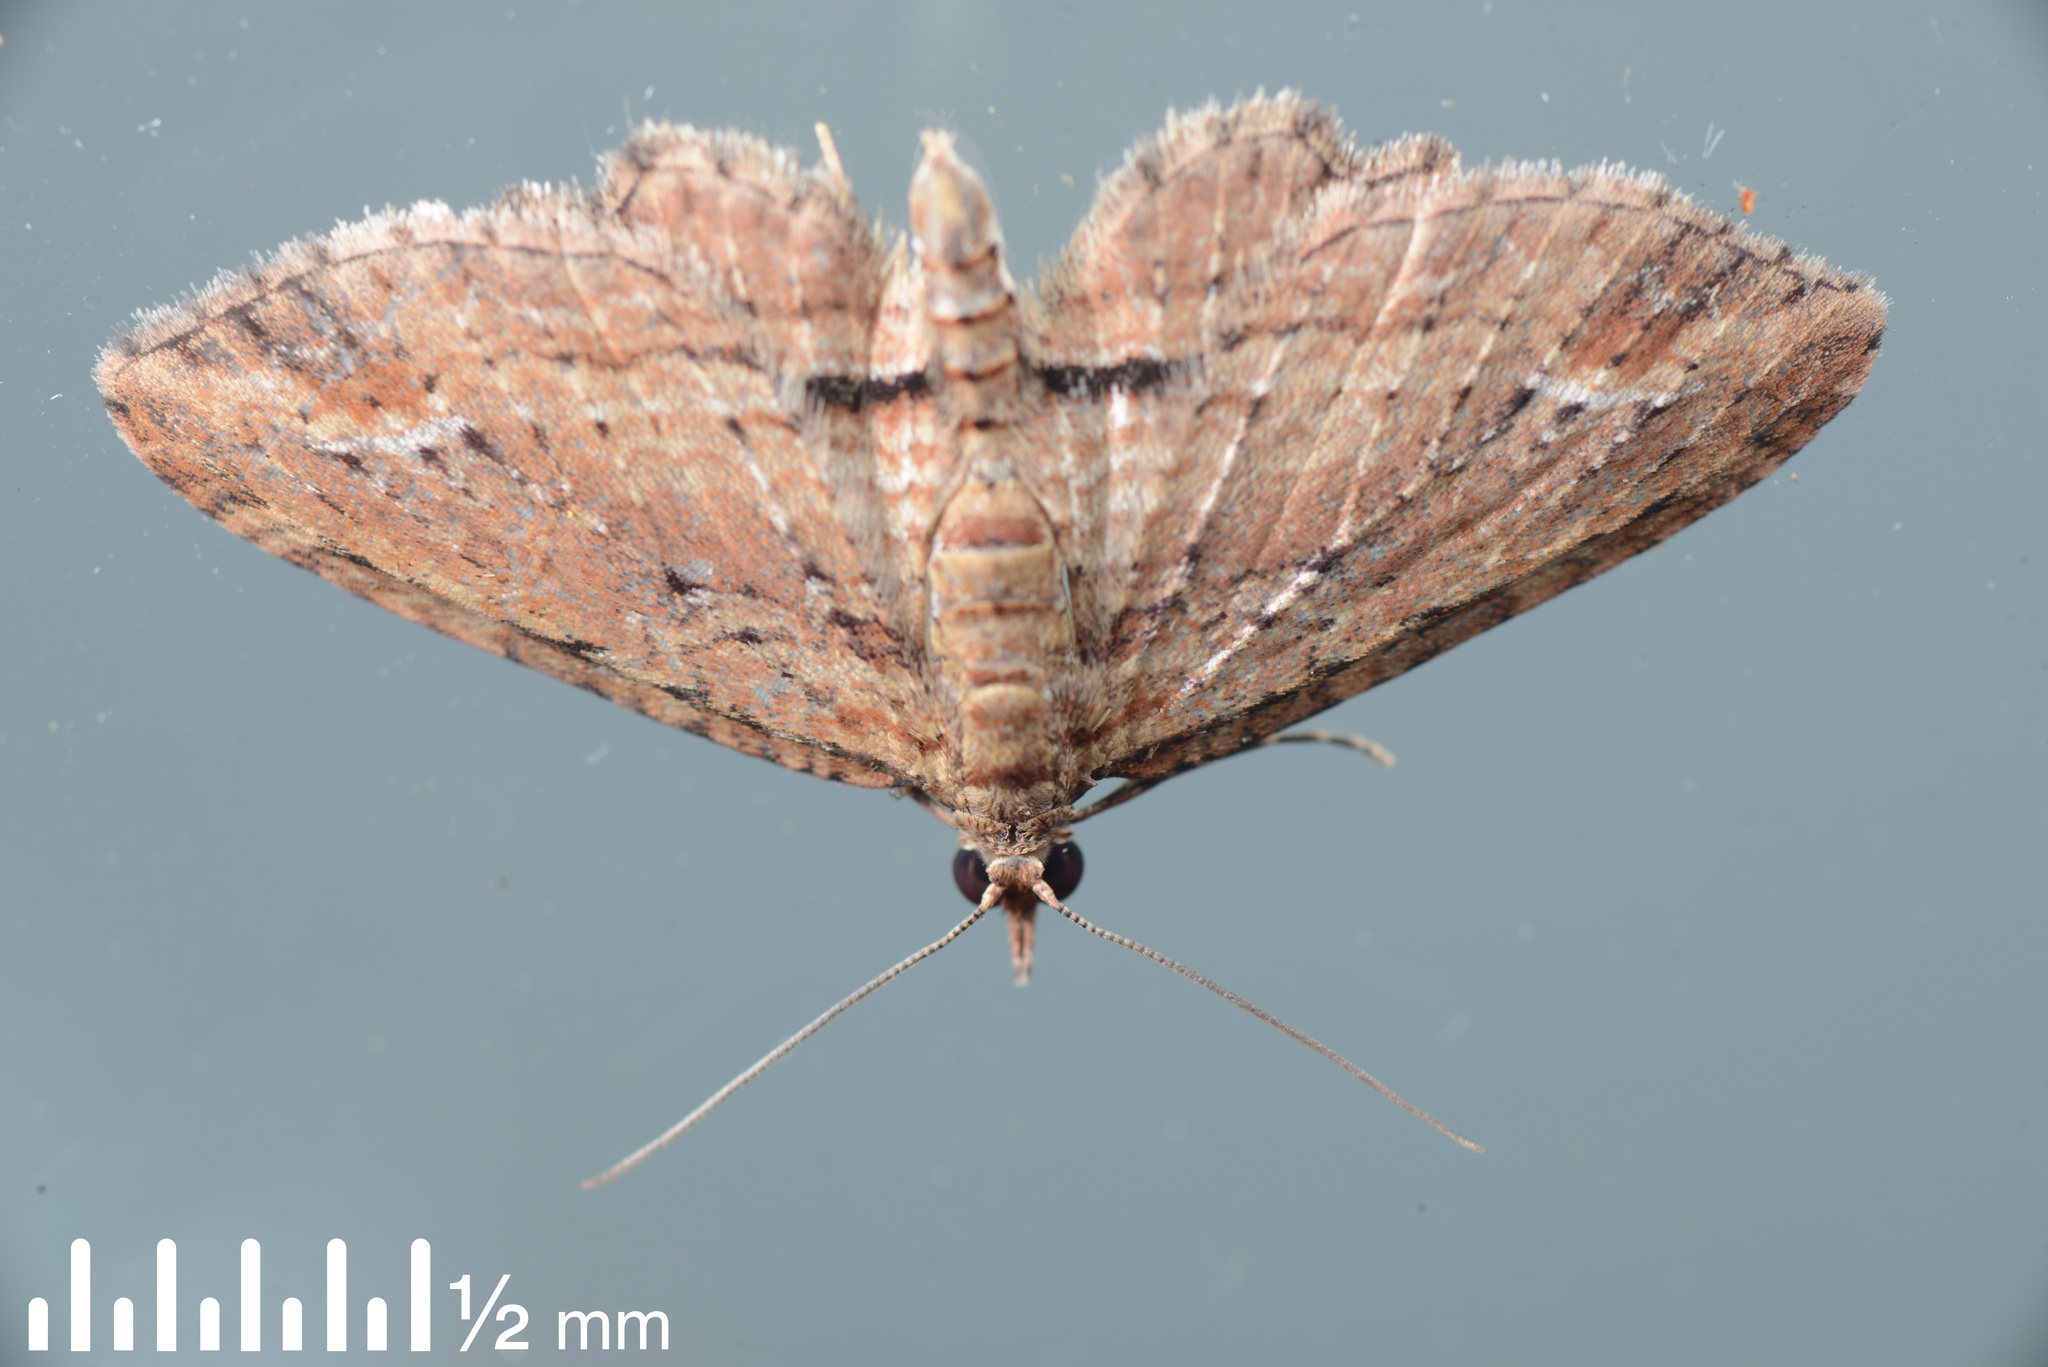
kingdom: Animalia
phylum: Arthropoda
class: Insecta
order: Lepidoptera
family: Geometridae
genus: Chloroclystis
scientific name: Chloroclystis filata
